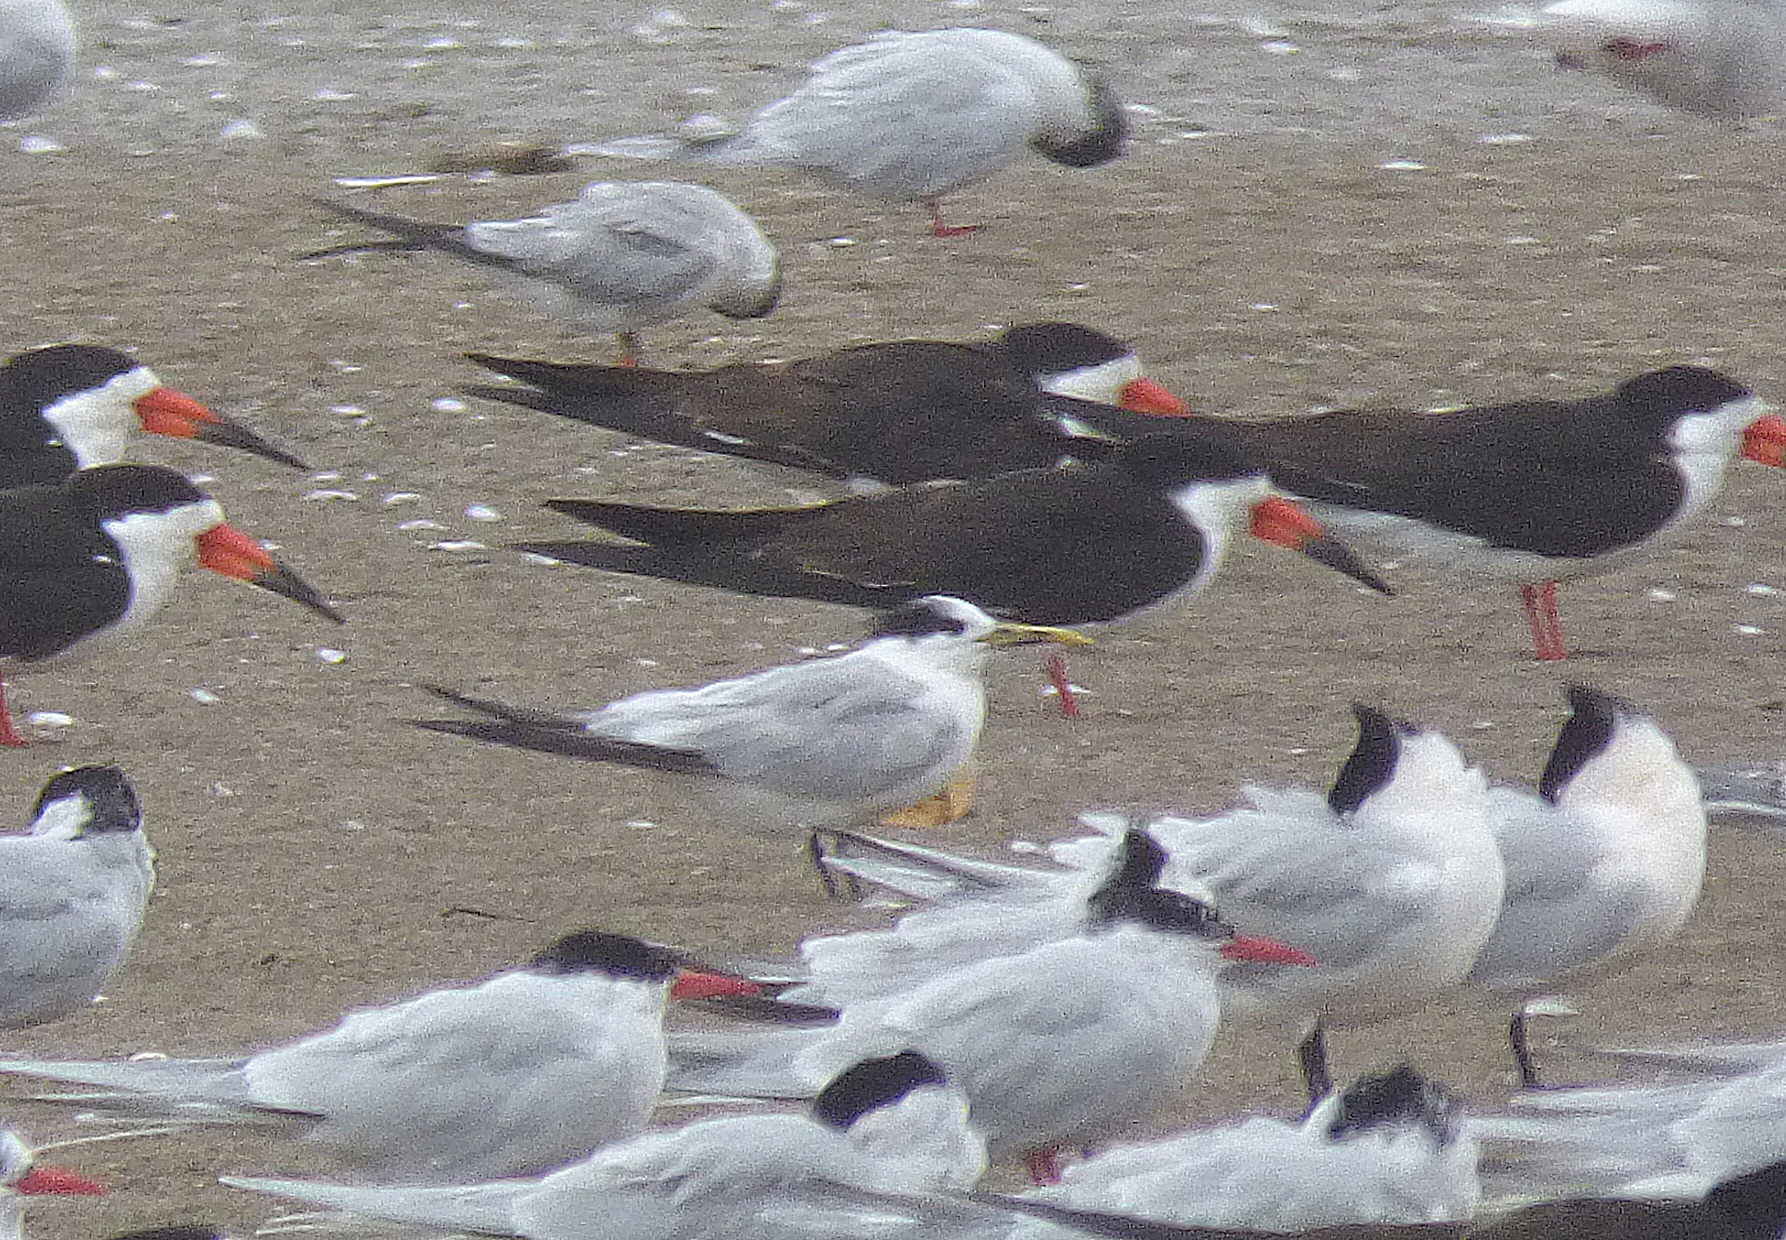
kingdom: Animalia
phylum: Chordata
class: Aves
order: Charadriiformes
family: Laridae
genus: Thalasseus
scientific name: Thalasseus sandvicensis
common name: Sandwich tern
